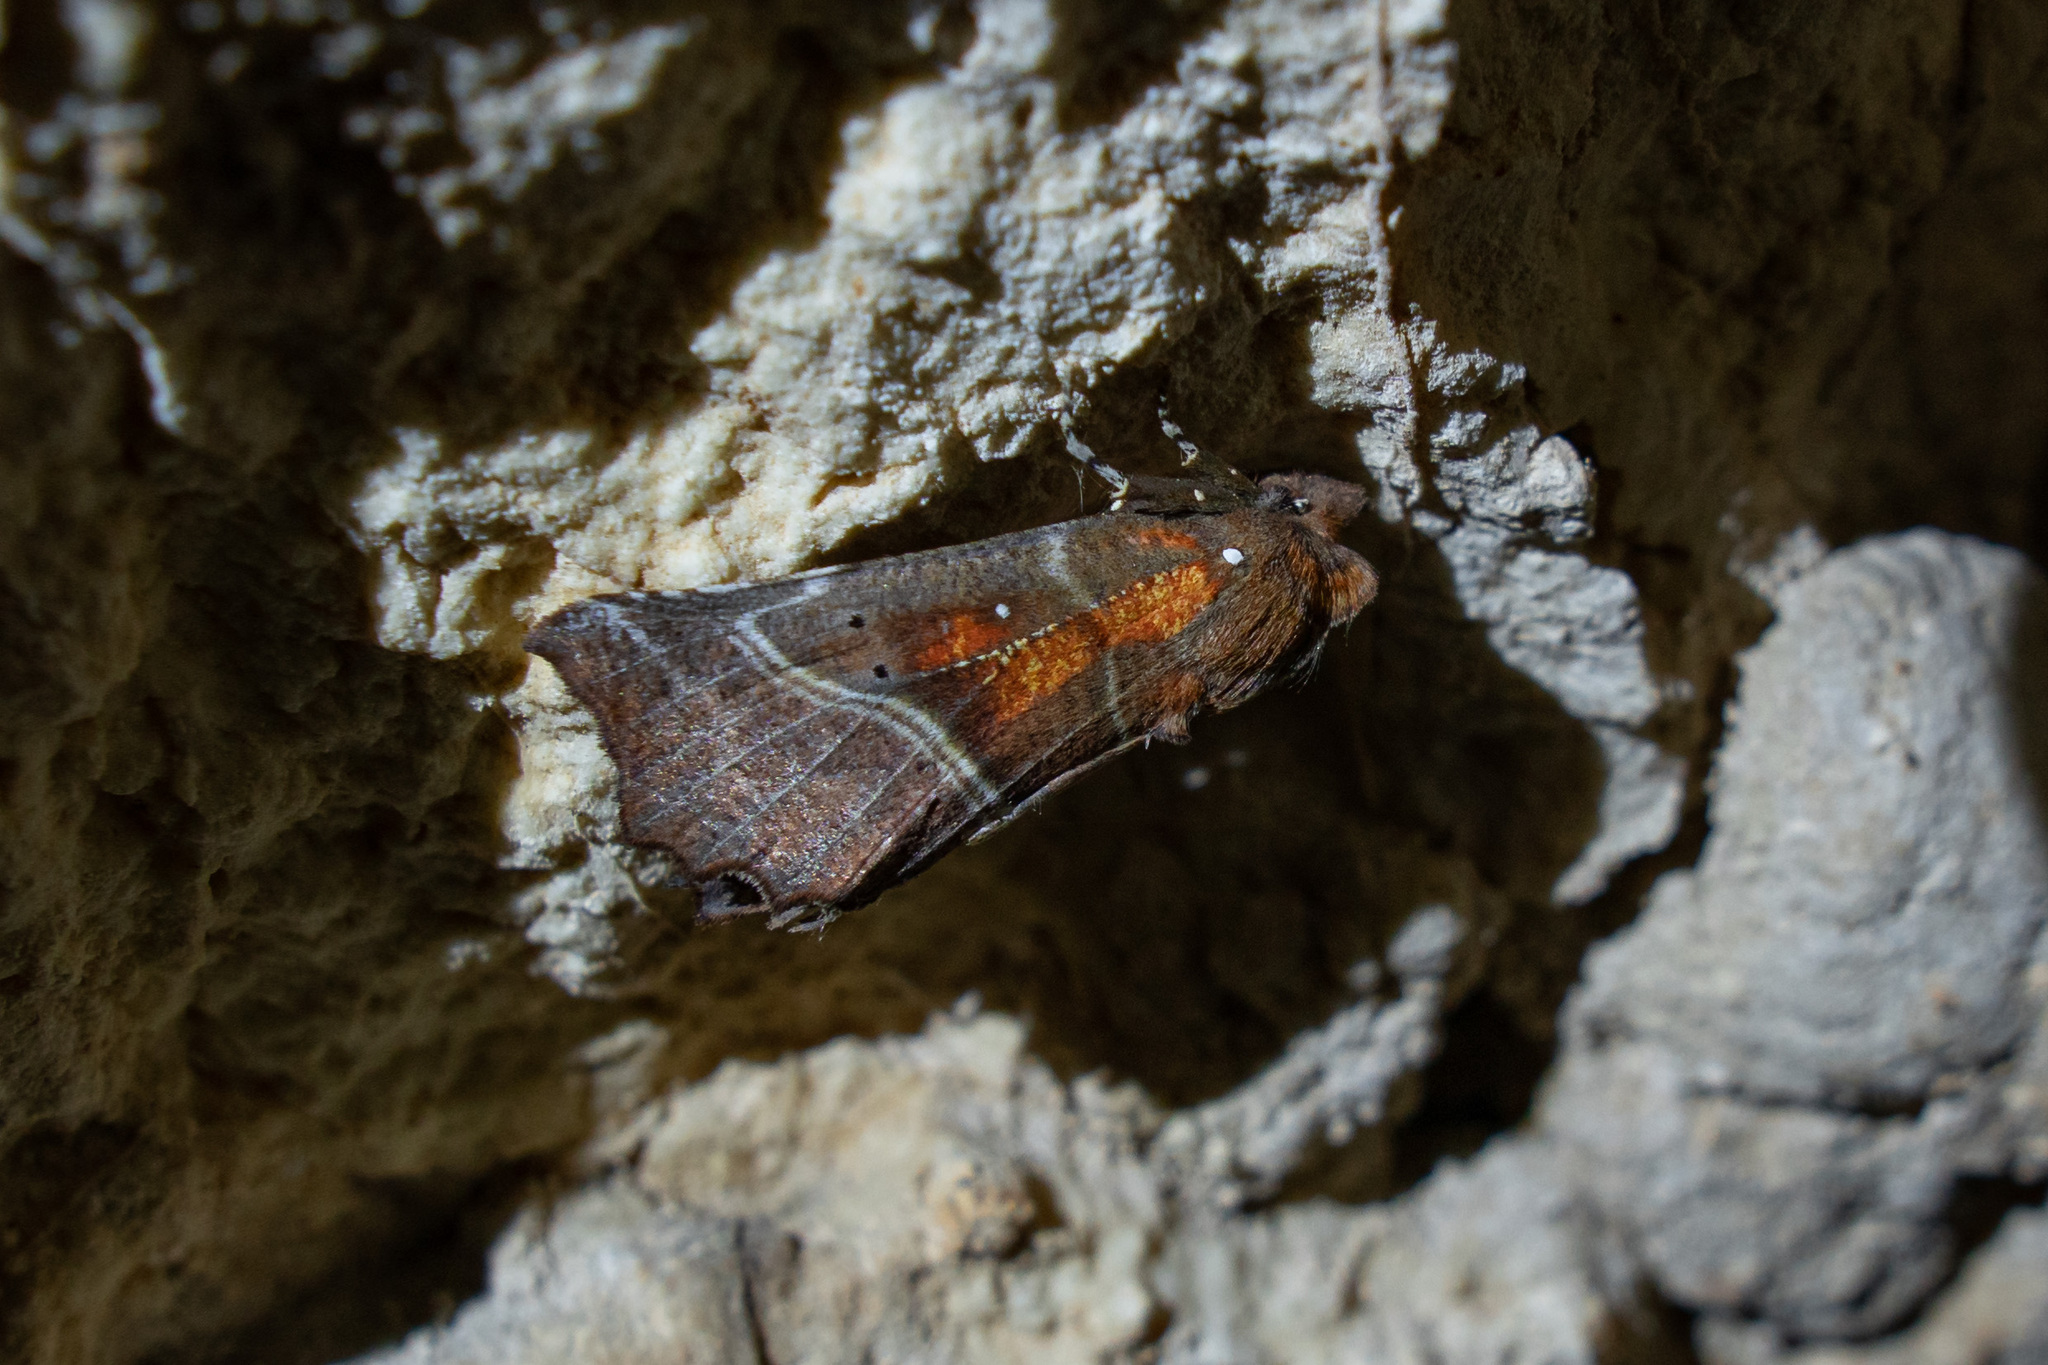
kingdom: Animalia
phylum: Arthropoda
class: Insecta
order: Lepidoptera
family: Erebidae
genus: Scoliopteryx
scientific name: Scoliopteryx libatrix
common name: Herald
